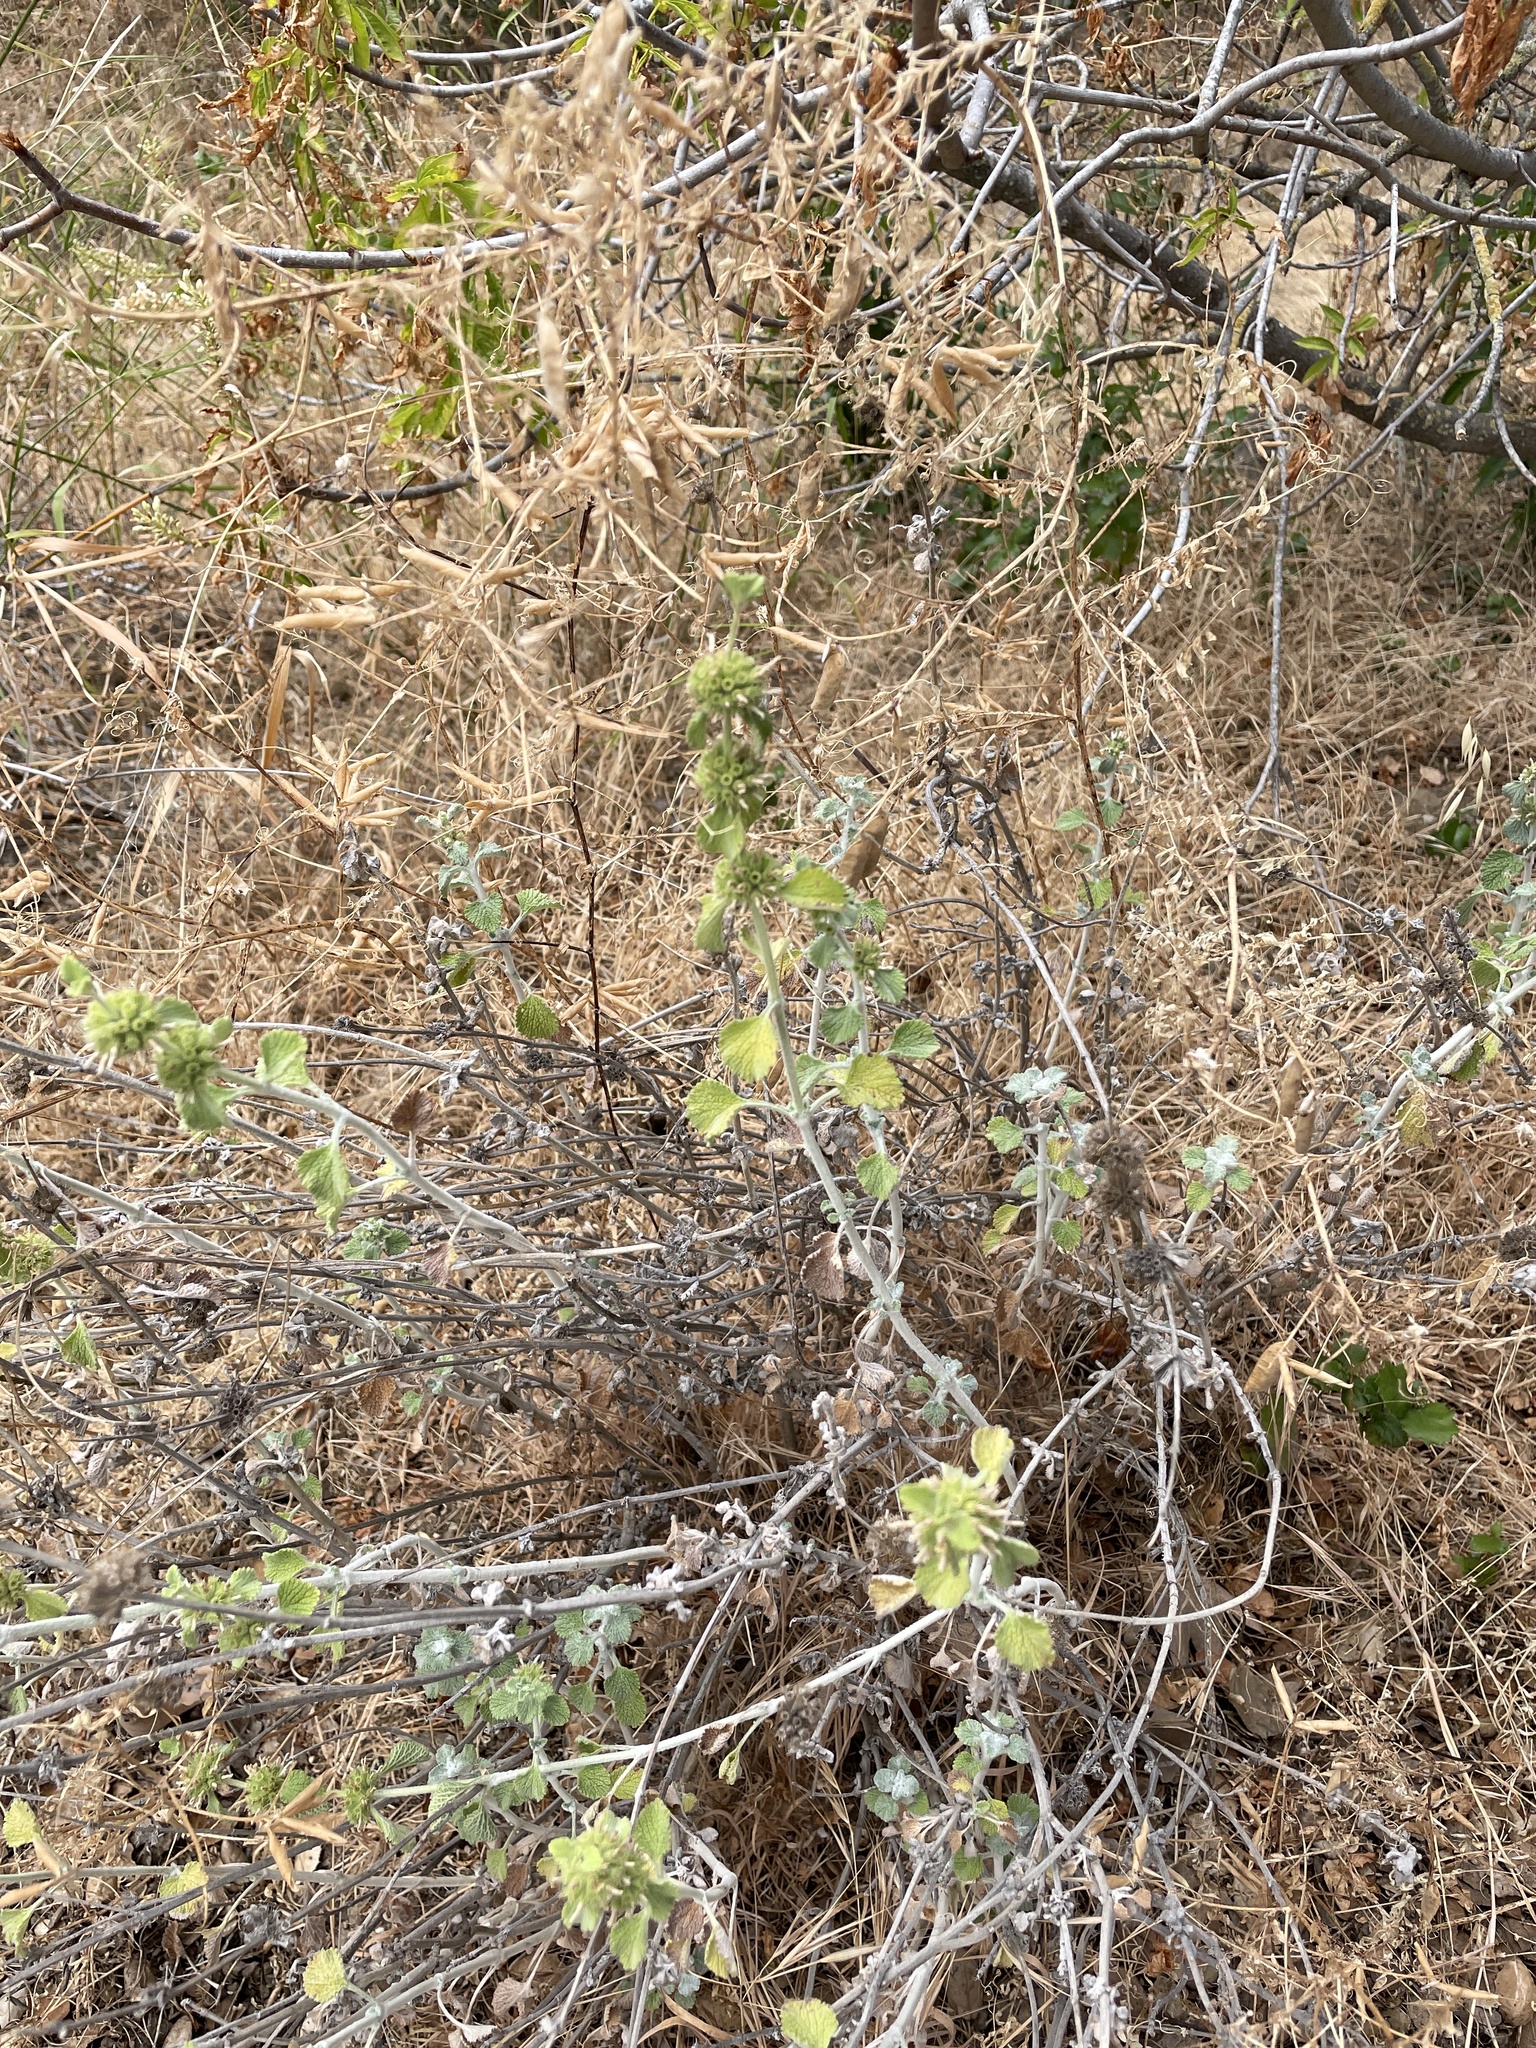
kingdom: Plantae
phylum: Tracheophyta
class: Magnoliopsida
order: Lamiales
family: Lamiaceae
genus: Marrubium
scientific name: Marrubium vulgare
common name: Horehound
